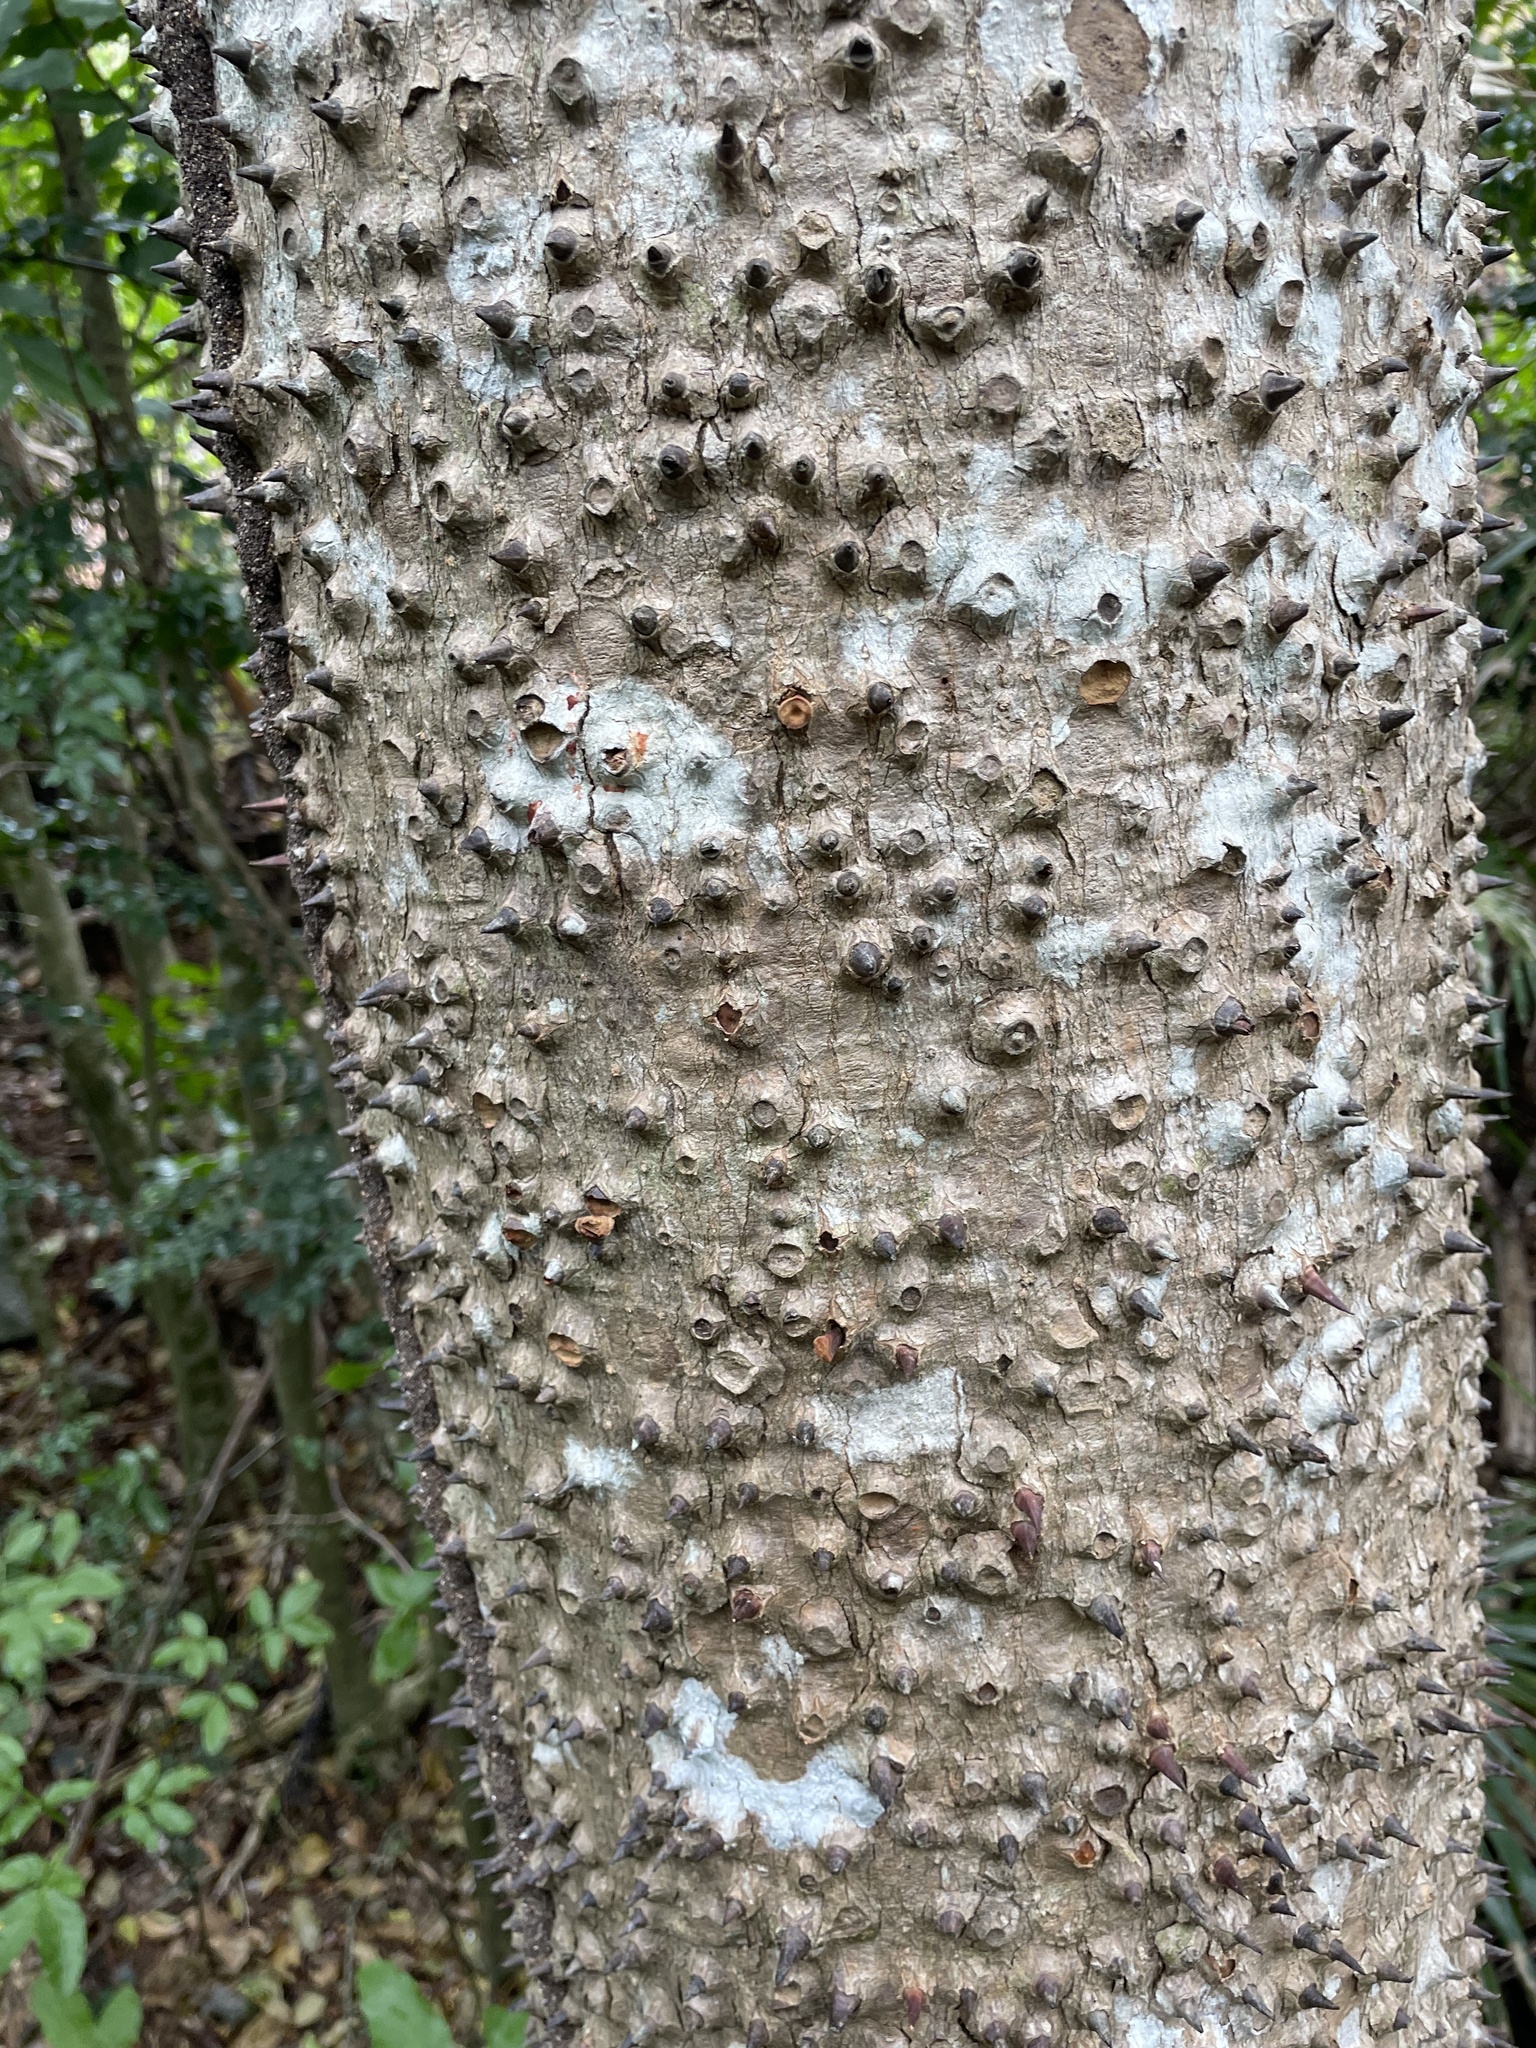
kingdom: Plantae
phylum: Tracheophyta
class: Magnoliopsida
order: Malpighiales
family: Euphorbiaceae
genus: Hura
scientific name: Hura crepitans
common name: Sandboxtree
